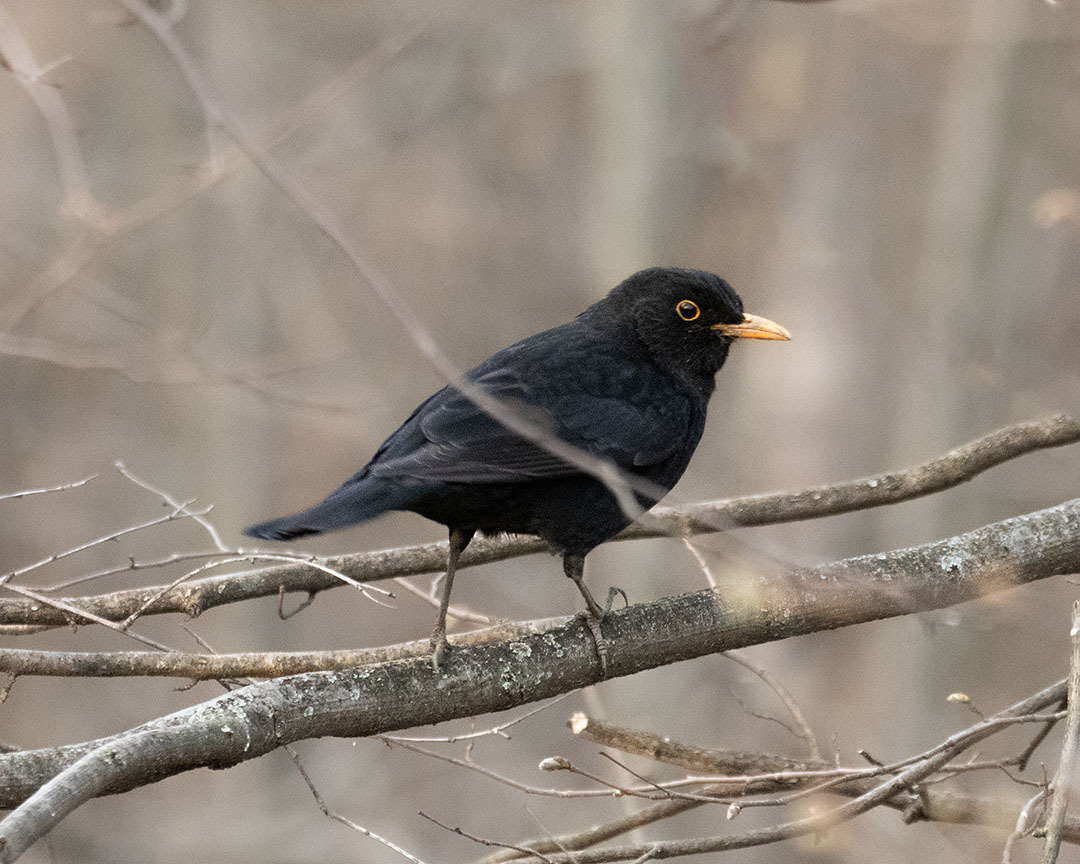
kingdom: Animalia
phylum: Chordata
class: Aves
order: Passeriformes
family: Turdidae
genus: Turdus
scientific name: Turdus merula
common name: Common blackbird
